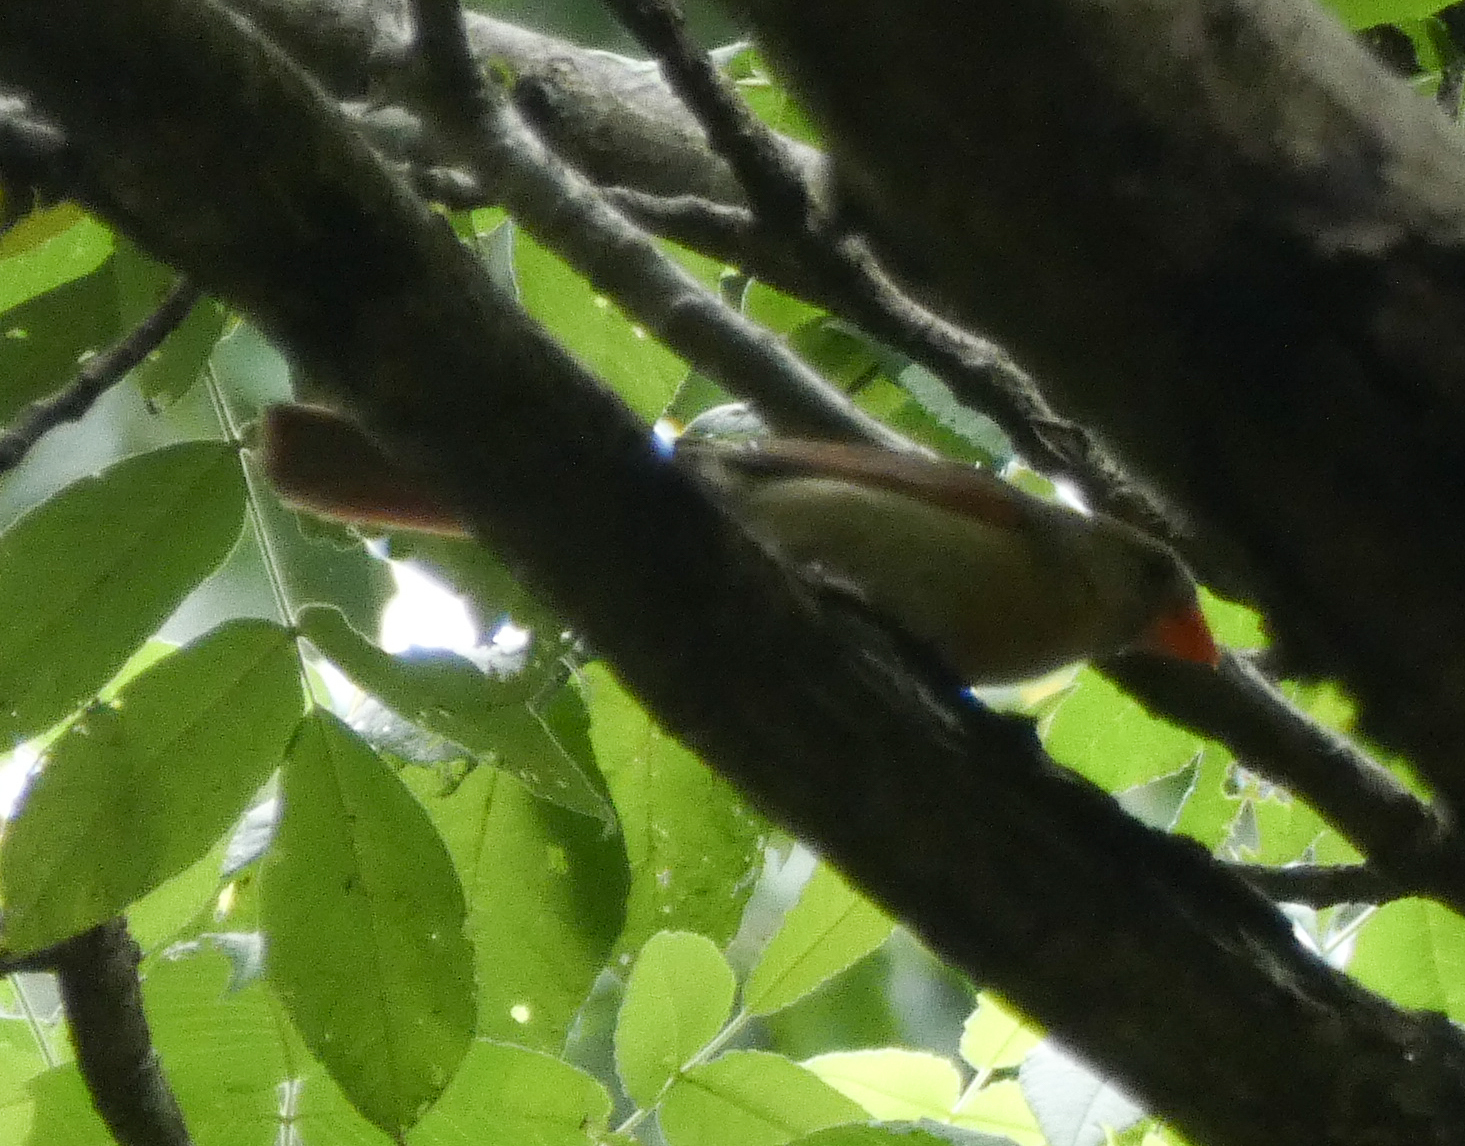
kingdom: Animalia
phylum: Chordata
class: Aves
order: Passeriformes
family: Cardinalidae
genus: Cardinalis
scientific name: Cardinalis cardinalis
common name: Northern cardinal
